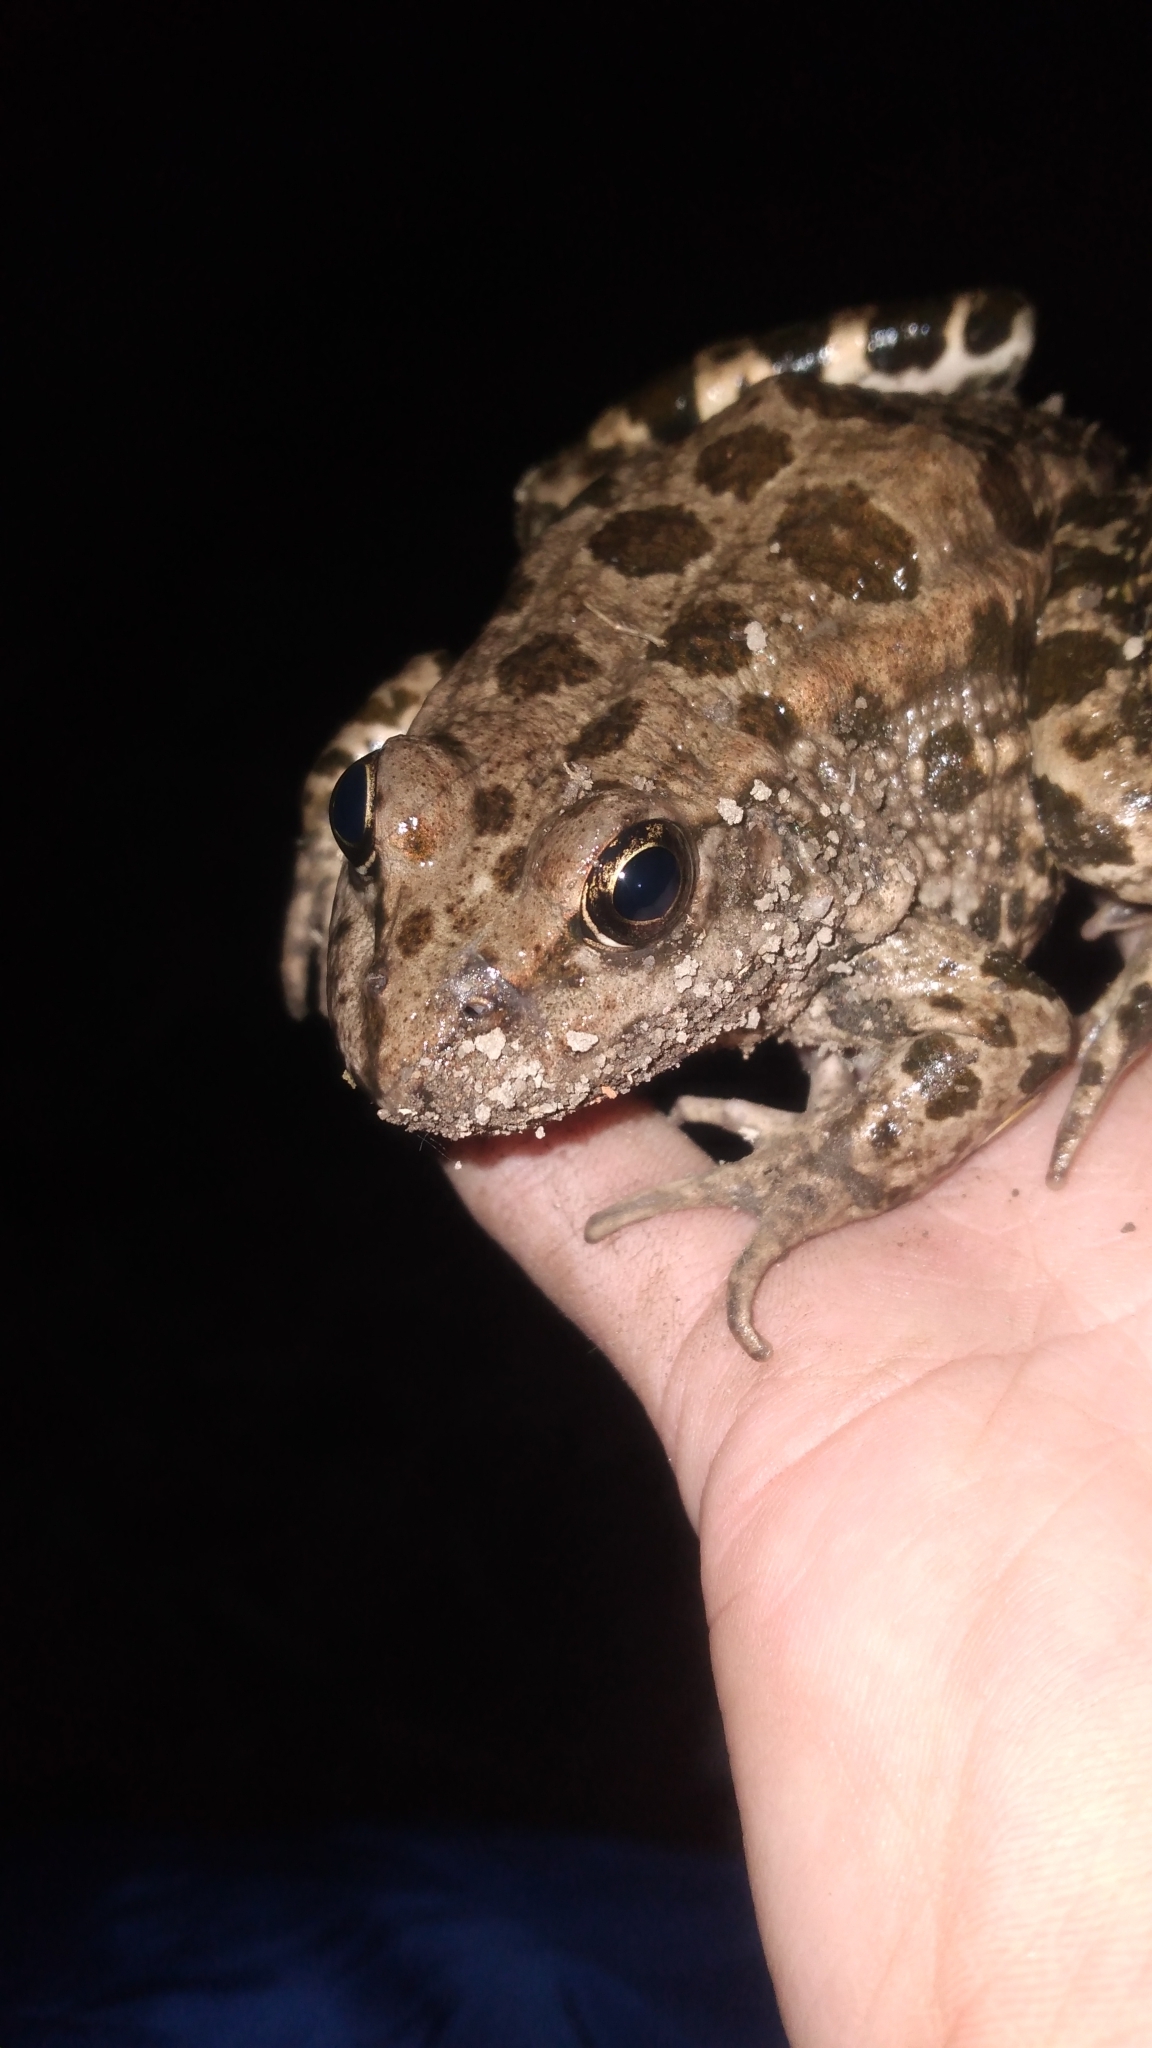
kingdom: Animalia
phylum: Chordata
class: Amphibia
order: Anura
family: Ranidae
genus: Pelophylax
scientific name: Pelophylax ridibundus
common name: Marsh frog
